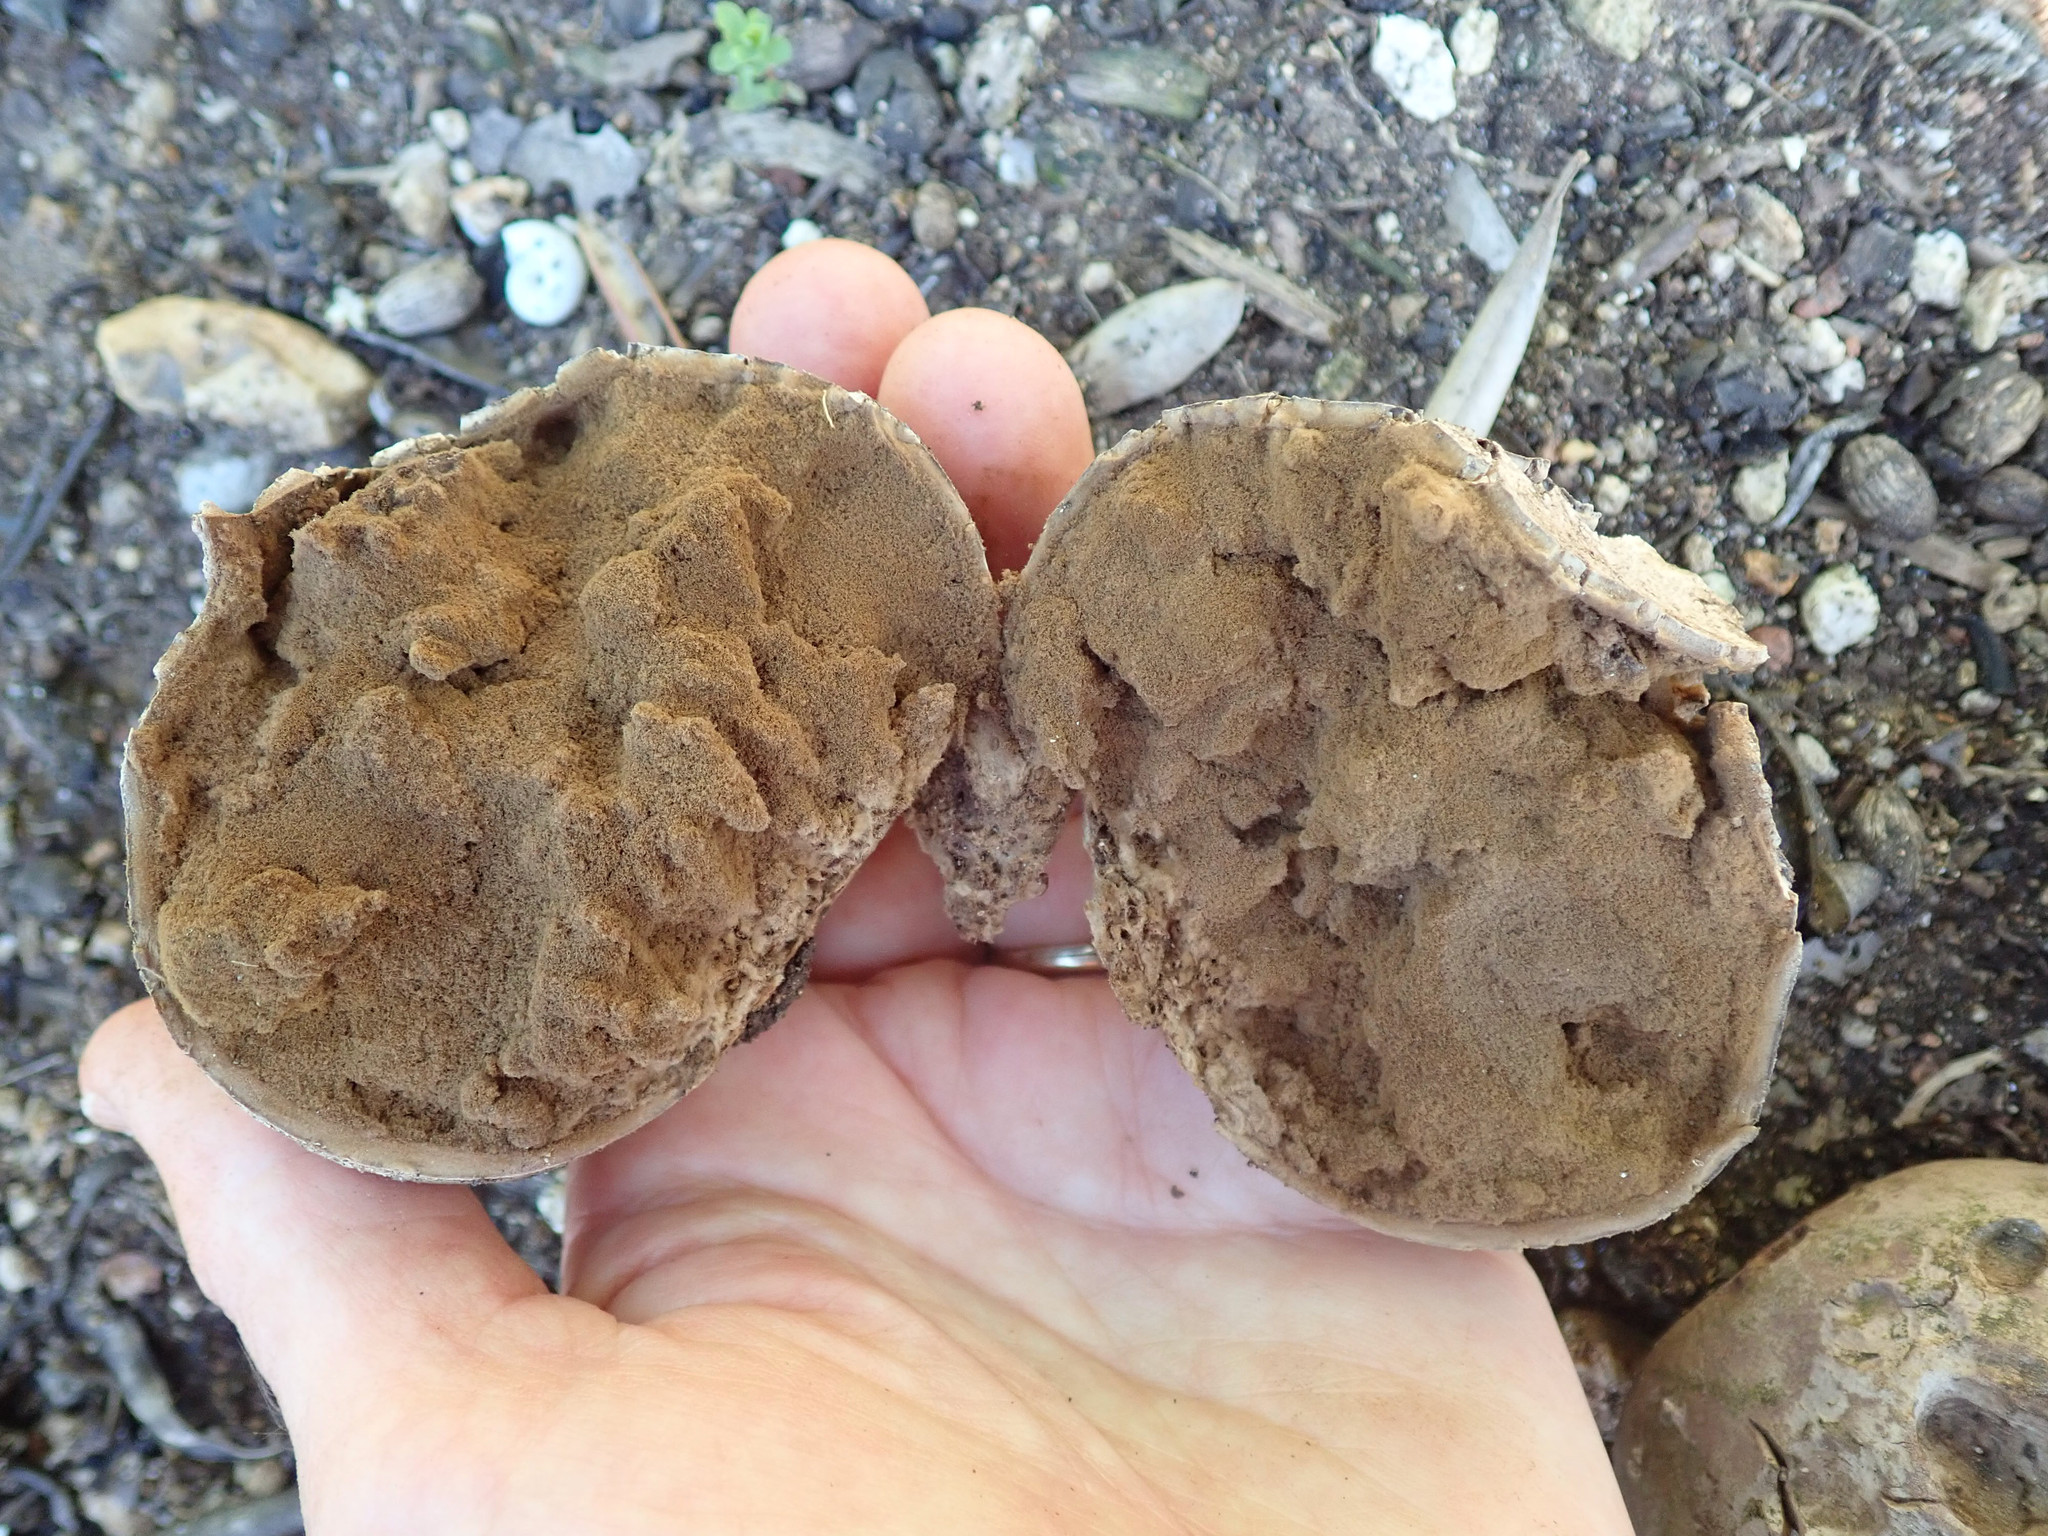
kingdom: Fungi
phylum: Basidiomycota
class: Agaricomycetes
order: Agaricales
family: Agaricaceae
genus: Mycenastrum
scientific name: Mycenastrum corium
